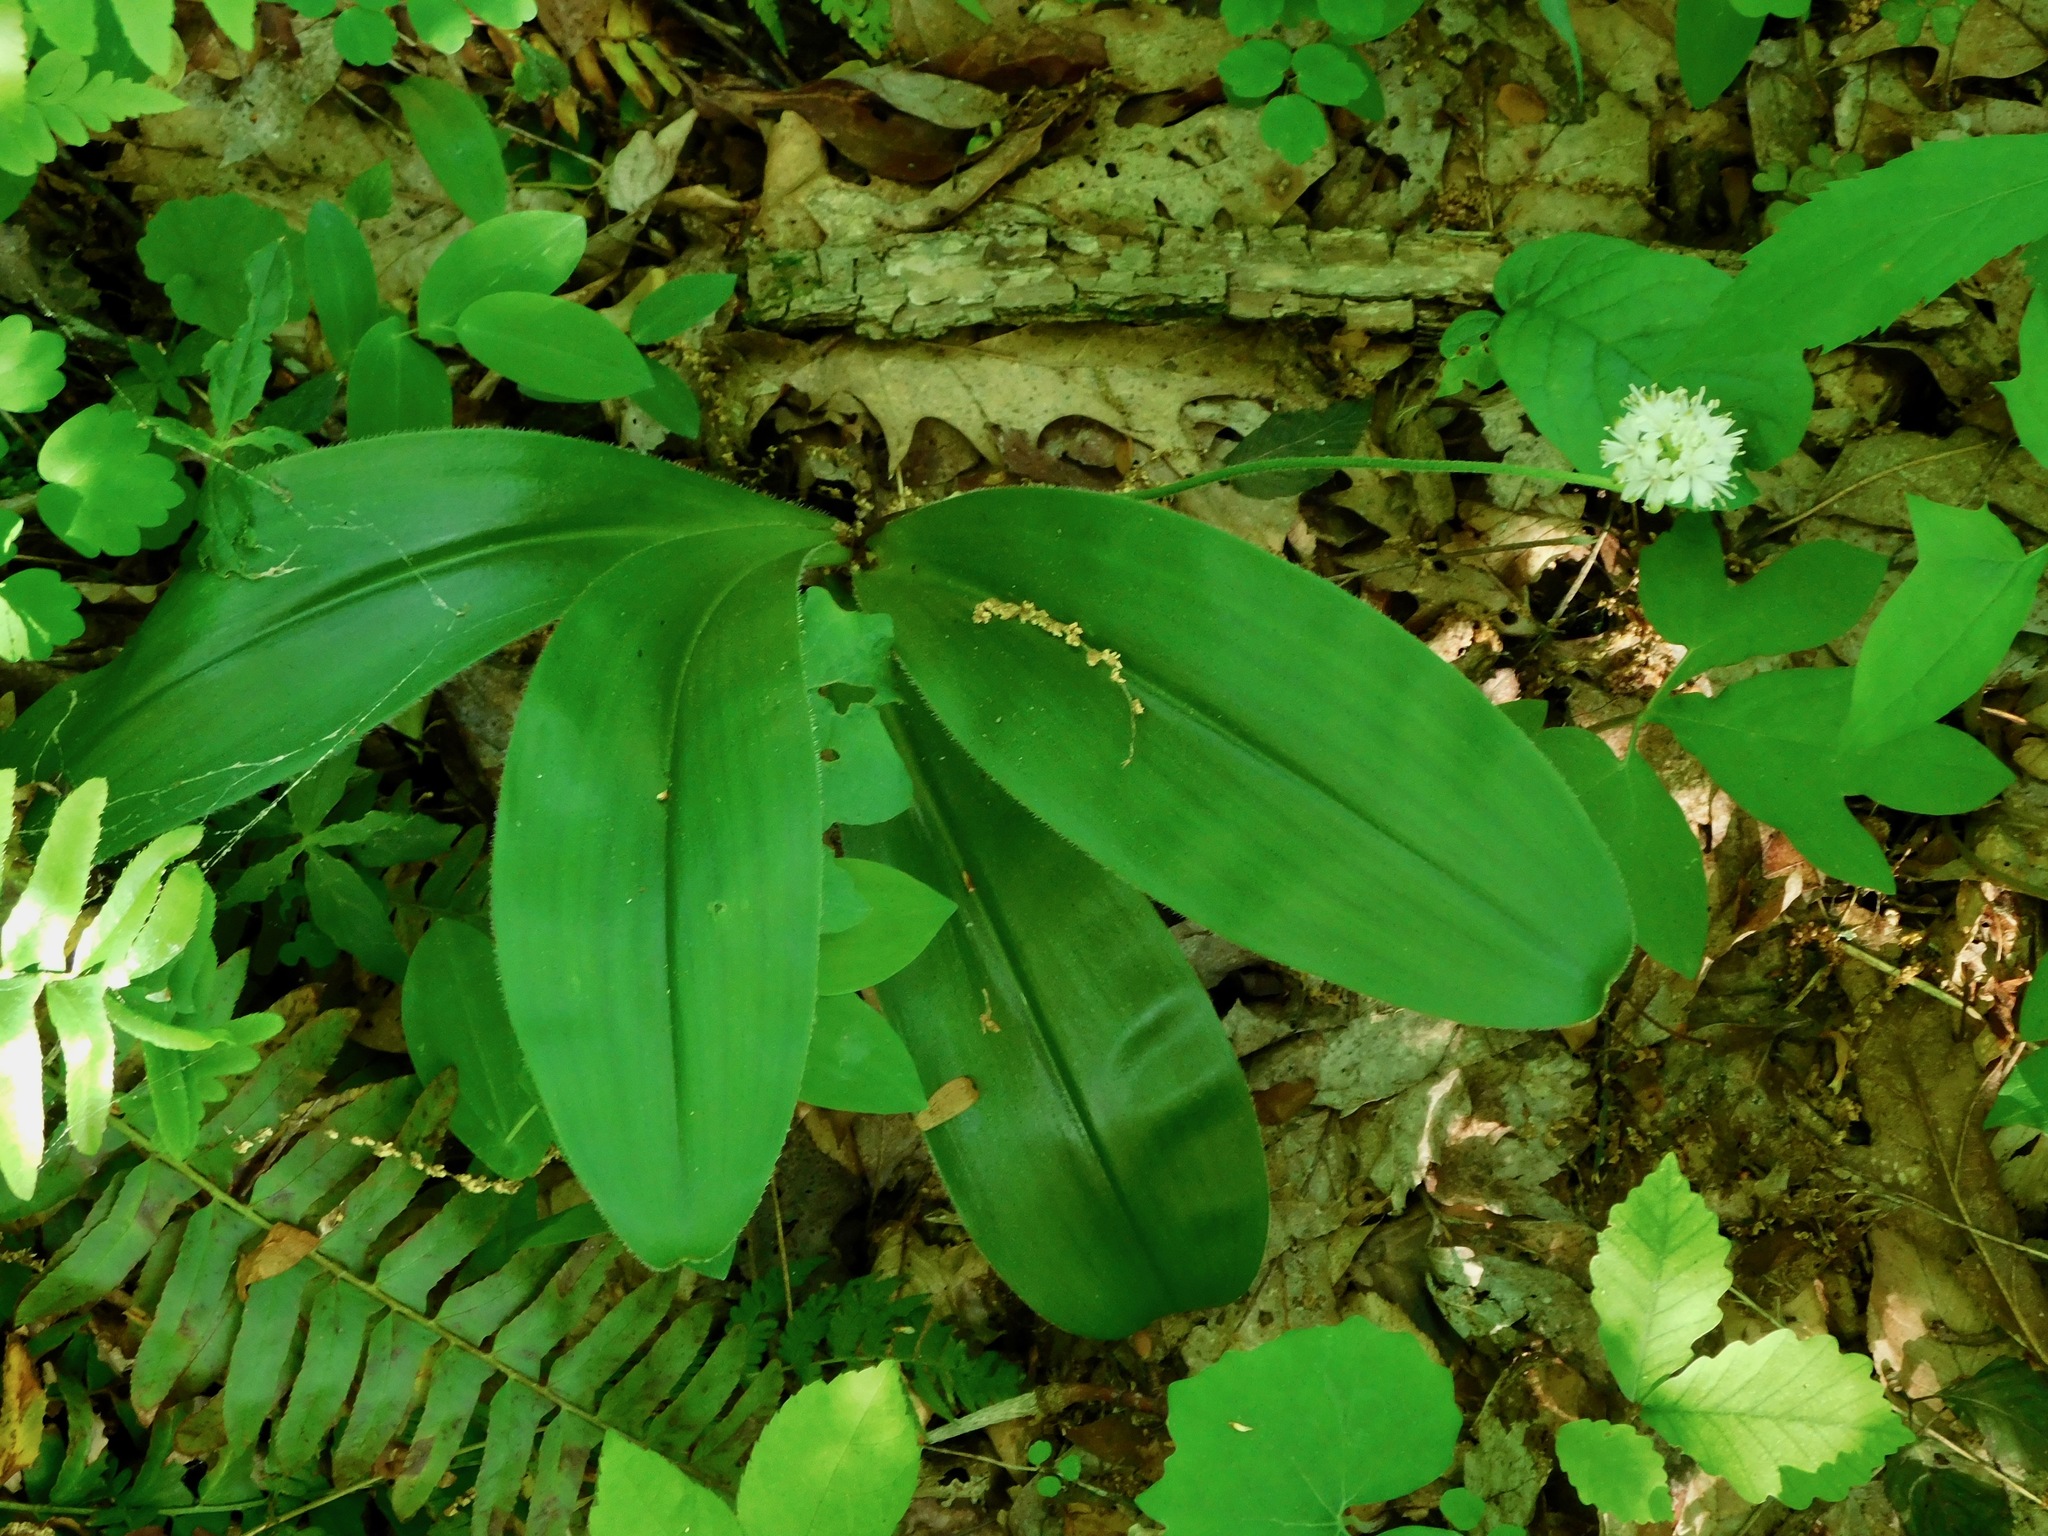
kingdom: Plantae
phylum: Tracheophyta
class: Liliopsida
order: Liliales
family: Liliaceae
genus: Clintonia
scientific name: Clintonia umbellulata
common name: Speckle wood-lily
